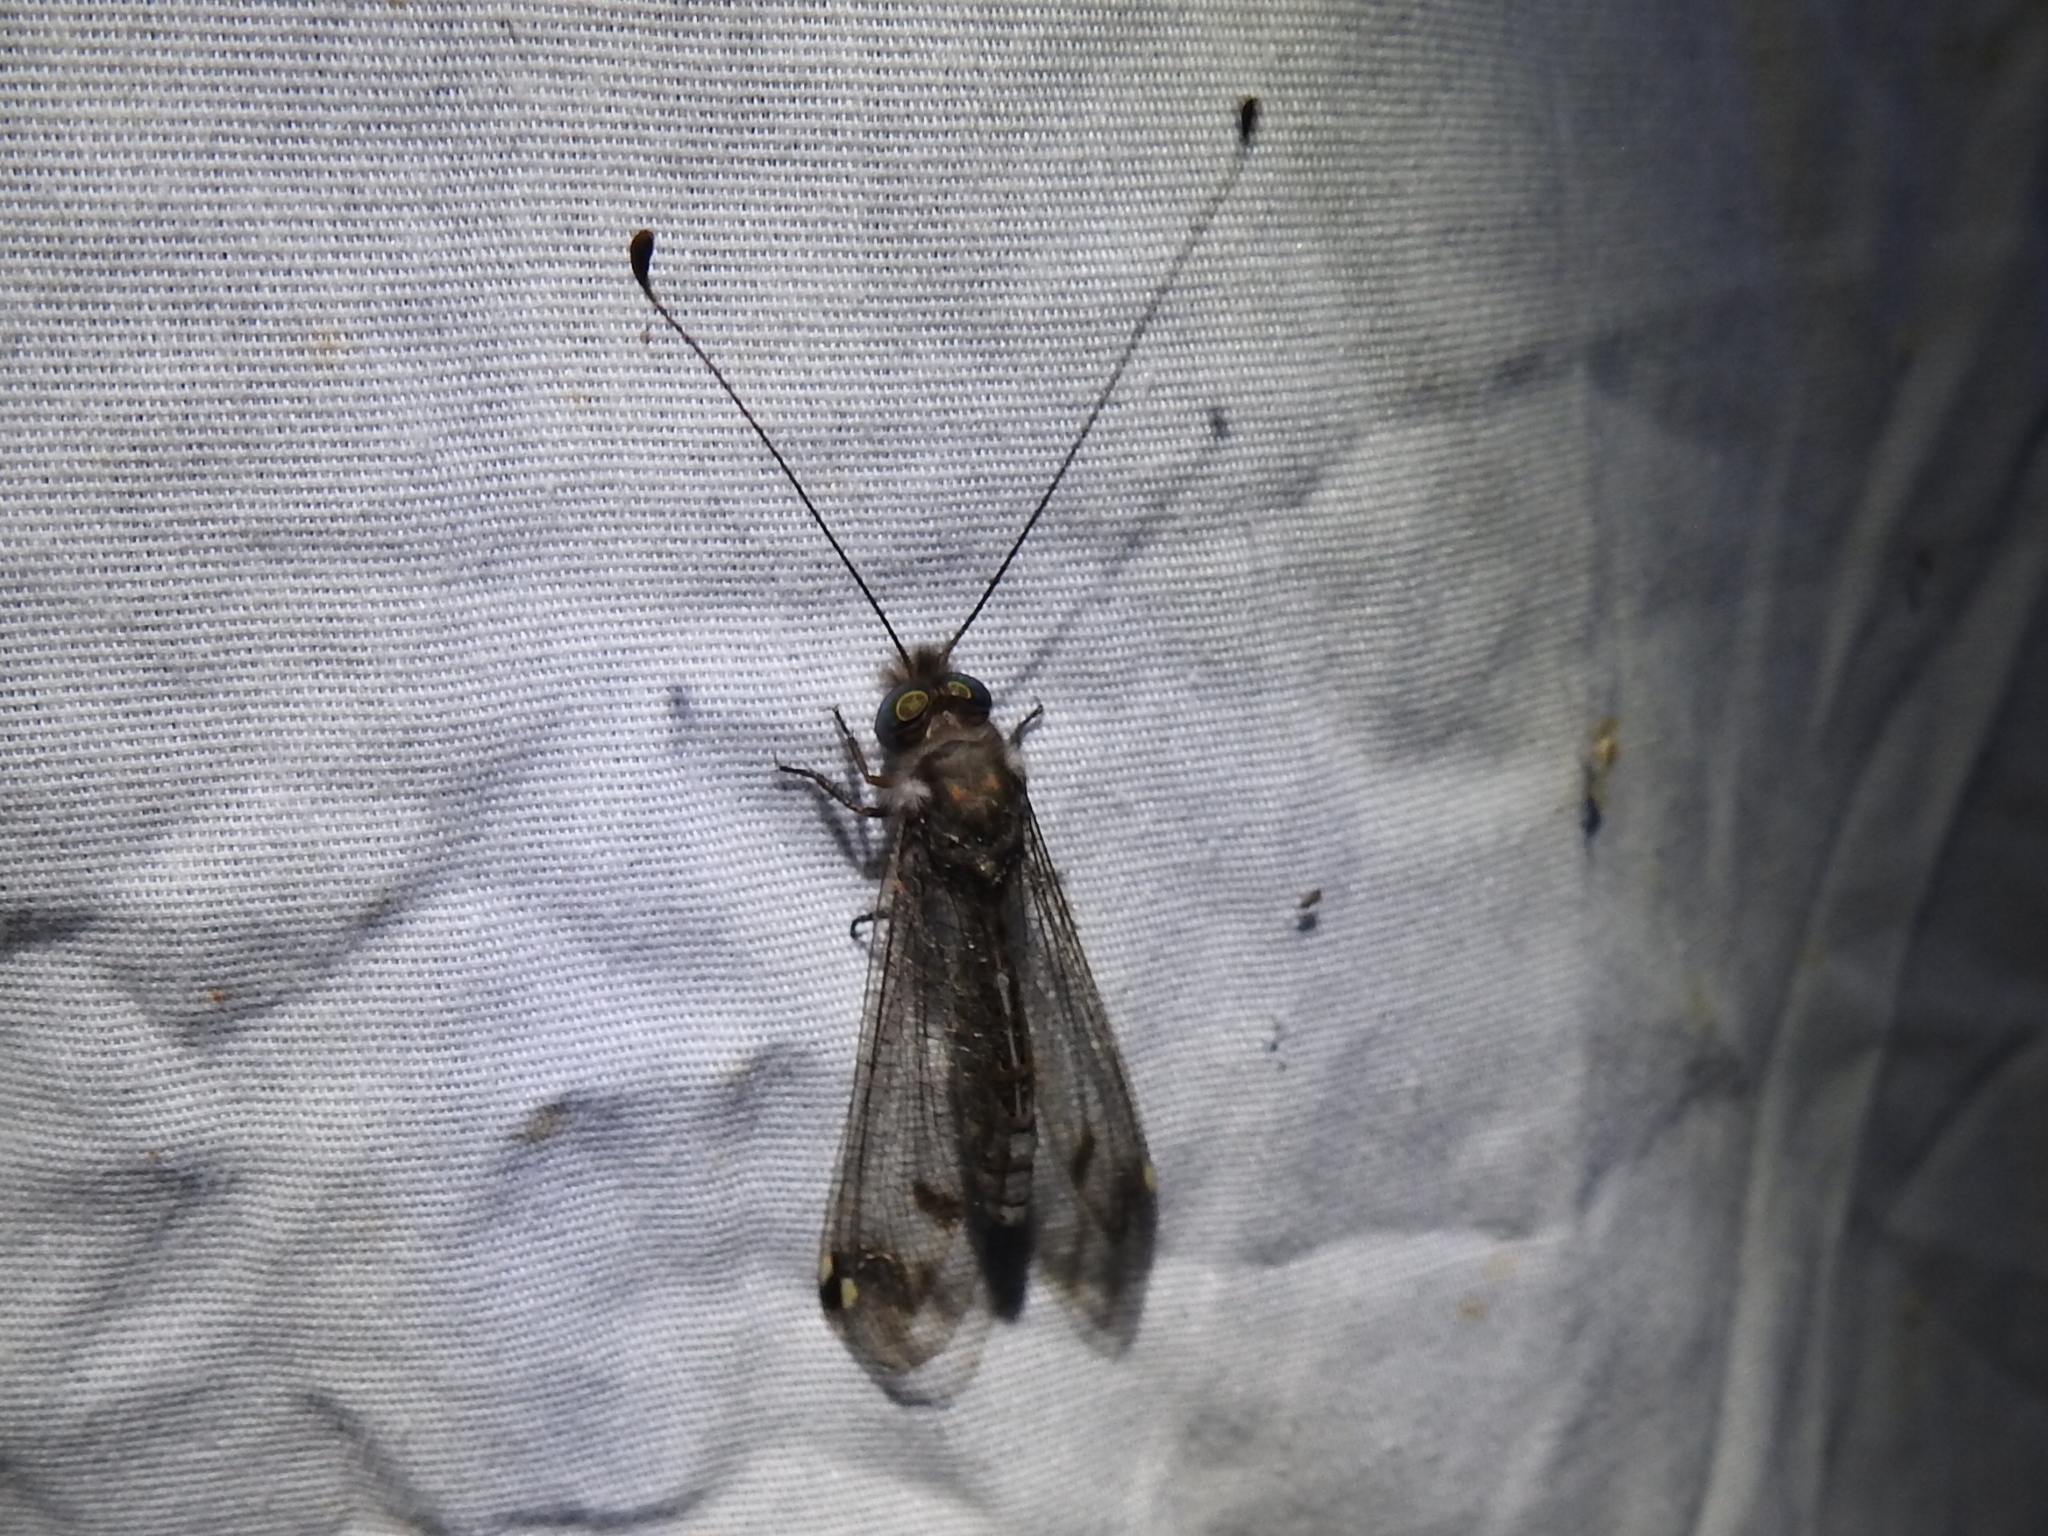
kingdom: Animalia
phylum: Arthropoda
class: Insecta
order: Neuroptera
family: Ascalaphidae
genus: Ululodes
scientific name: Ululodes quadripunctatus
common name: Four-spotted owlfly
